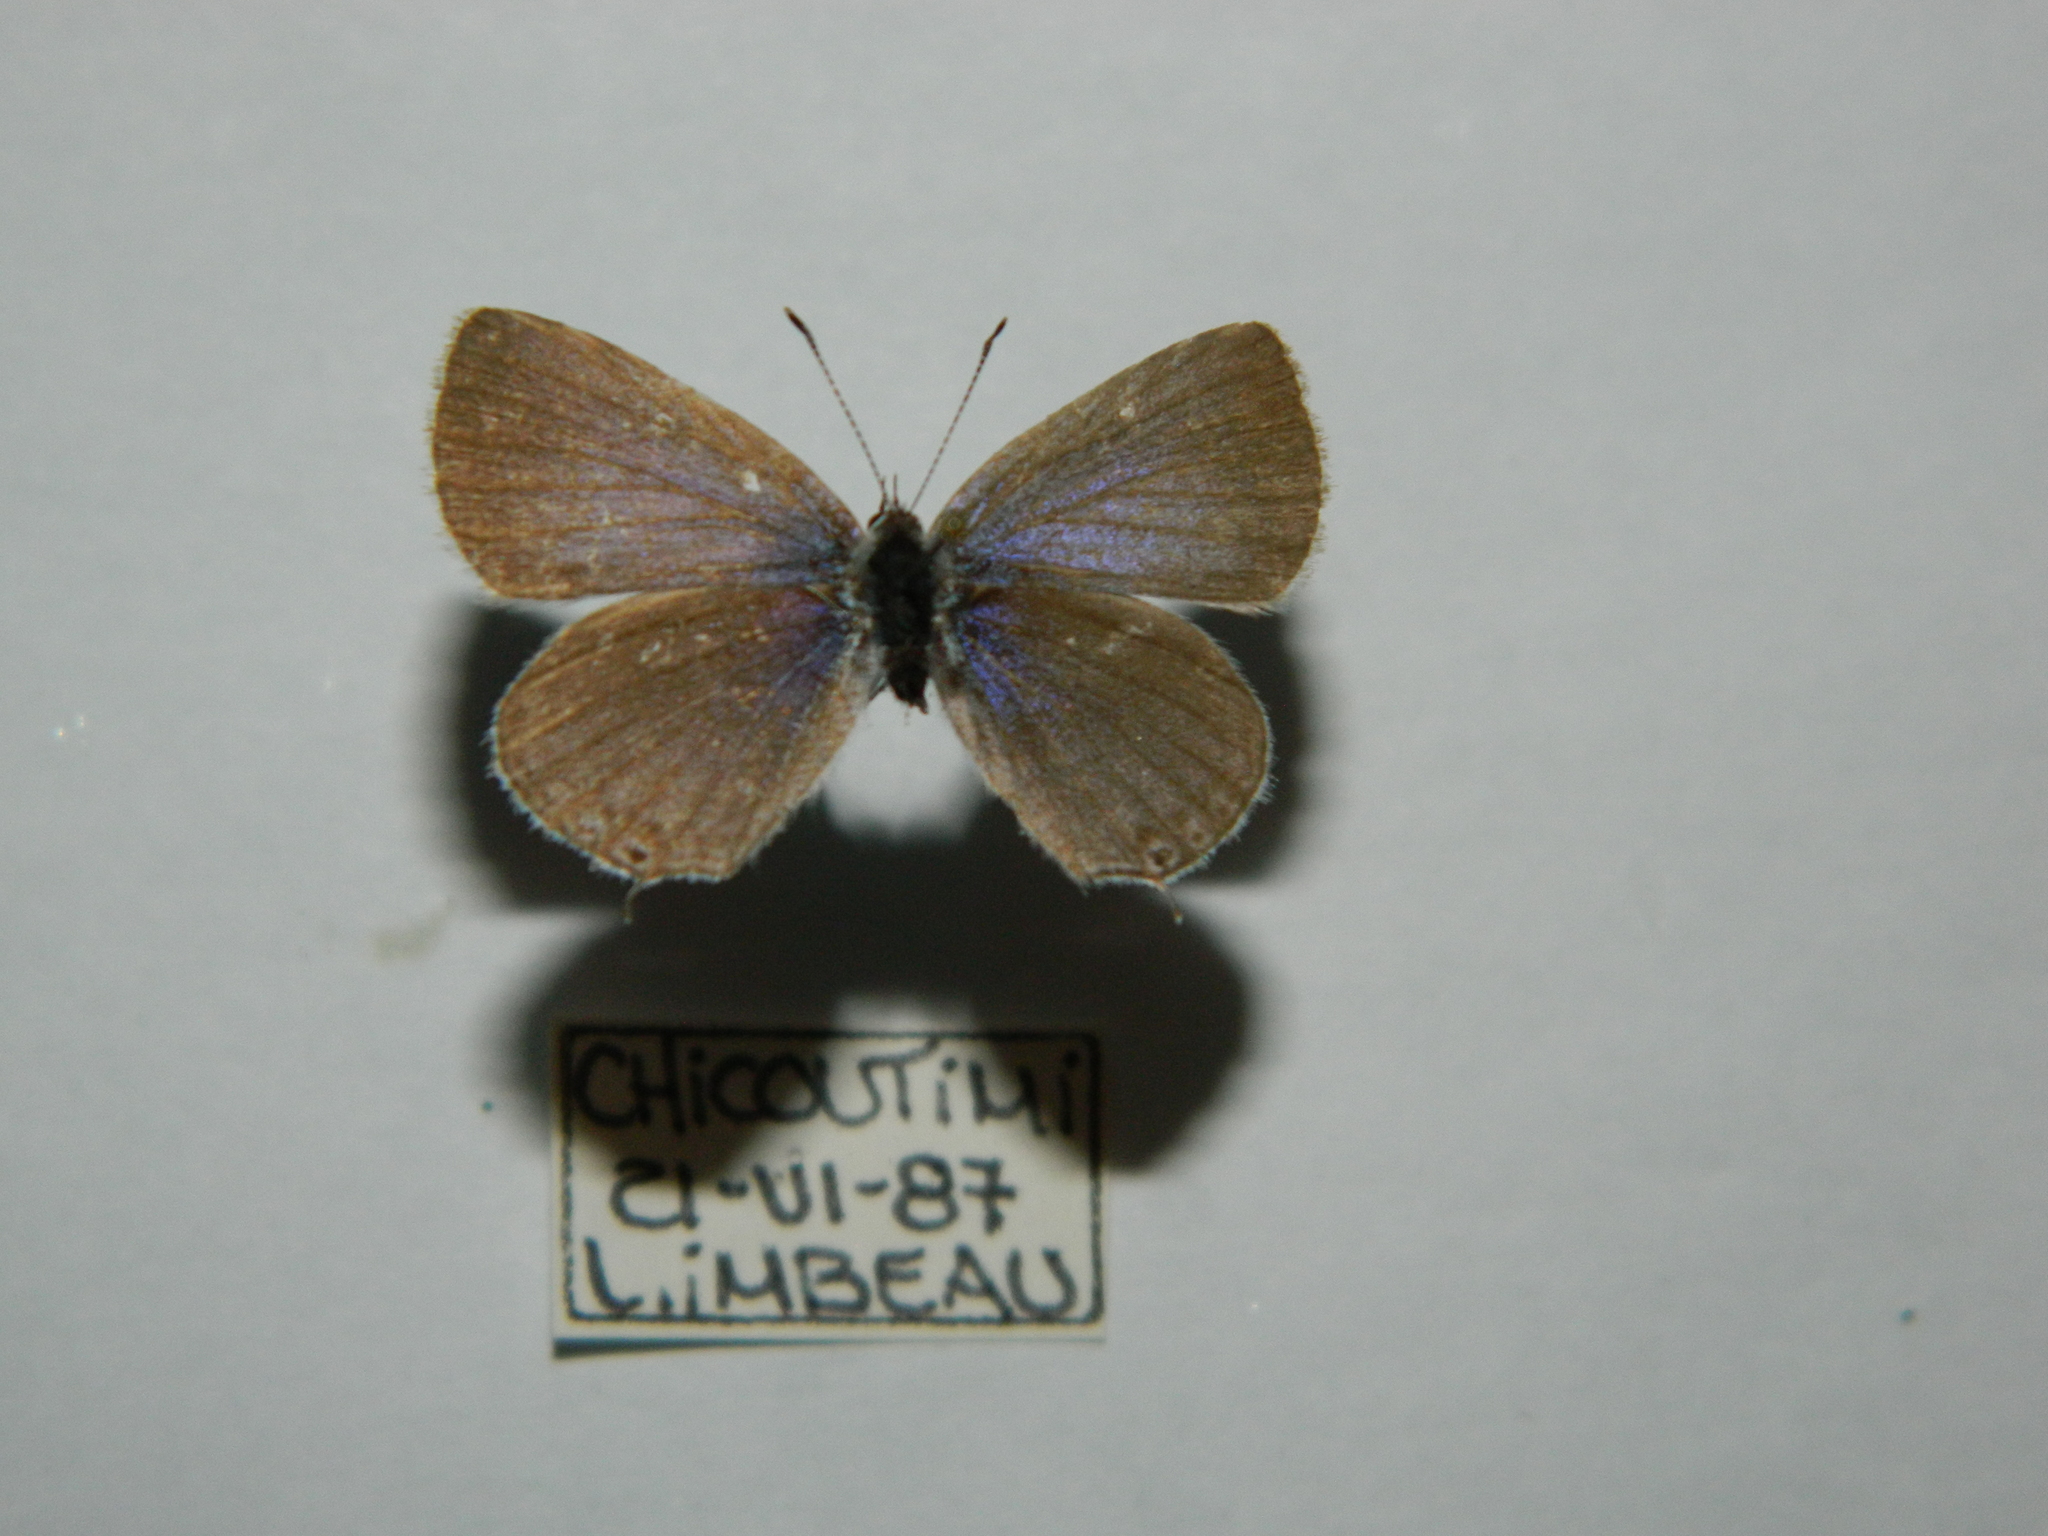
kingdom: Animalia
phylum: Arthropoda
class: Insecta
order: Lepidoptera
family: Lycaenidae
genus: Elkalyce
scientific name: Elkalyce amyntula
